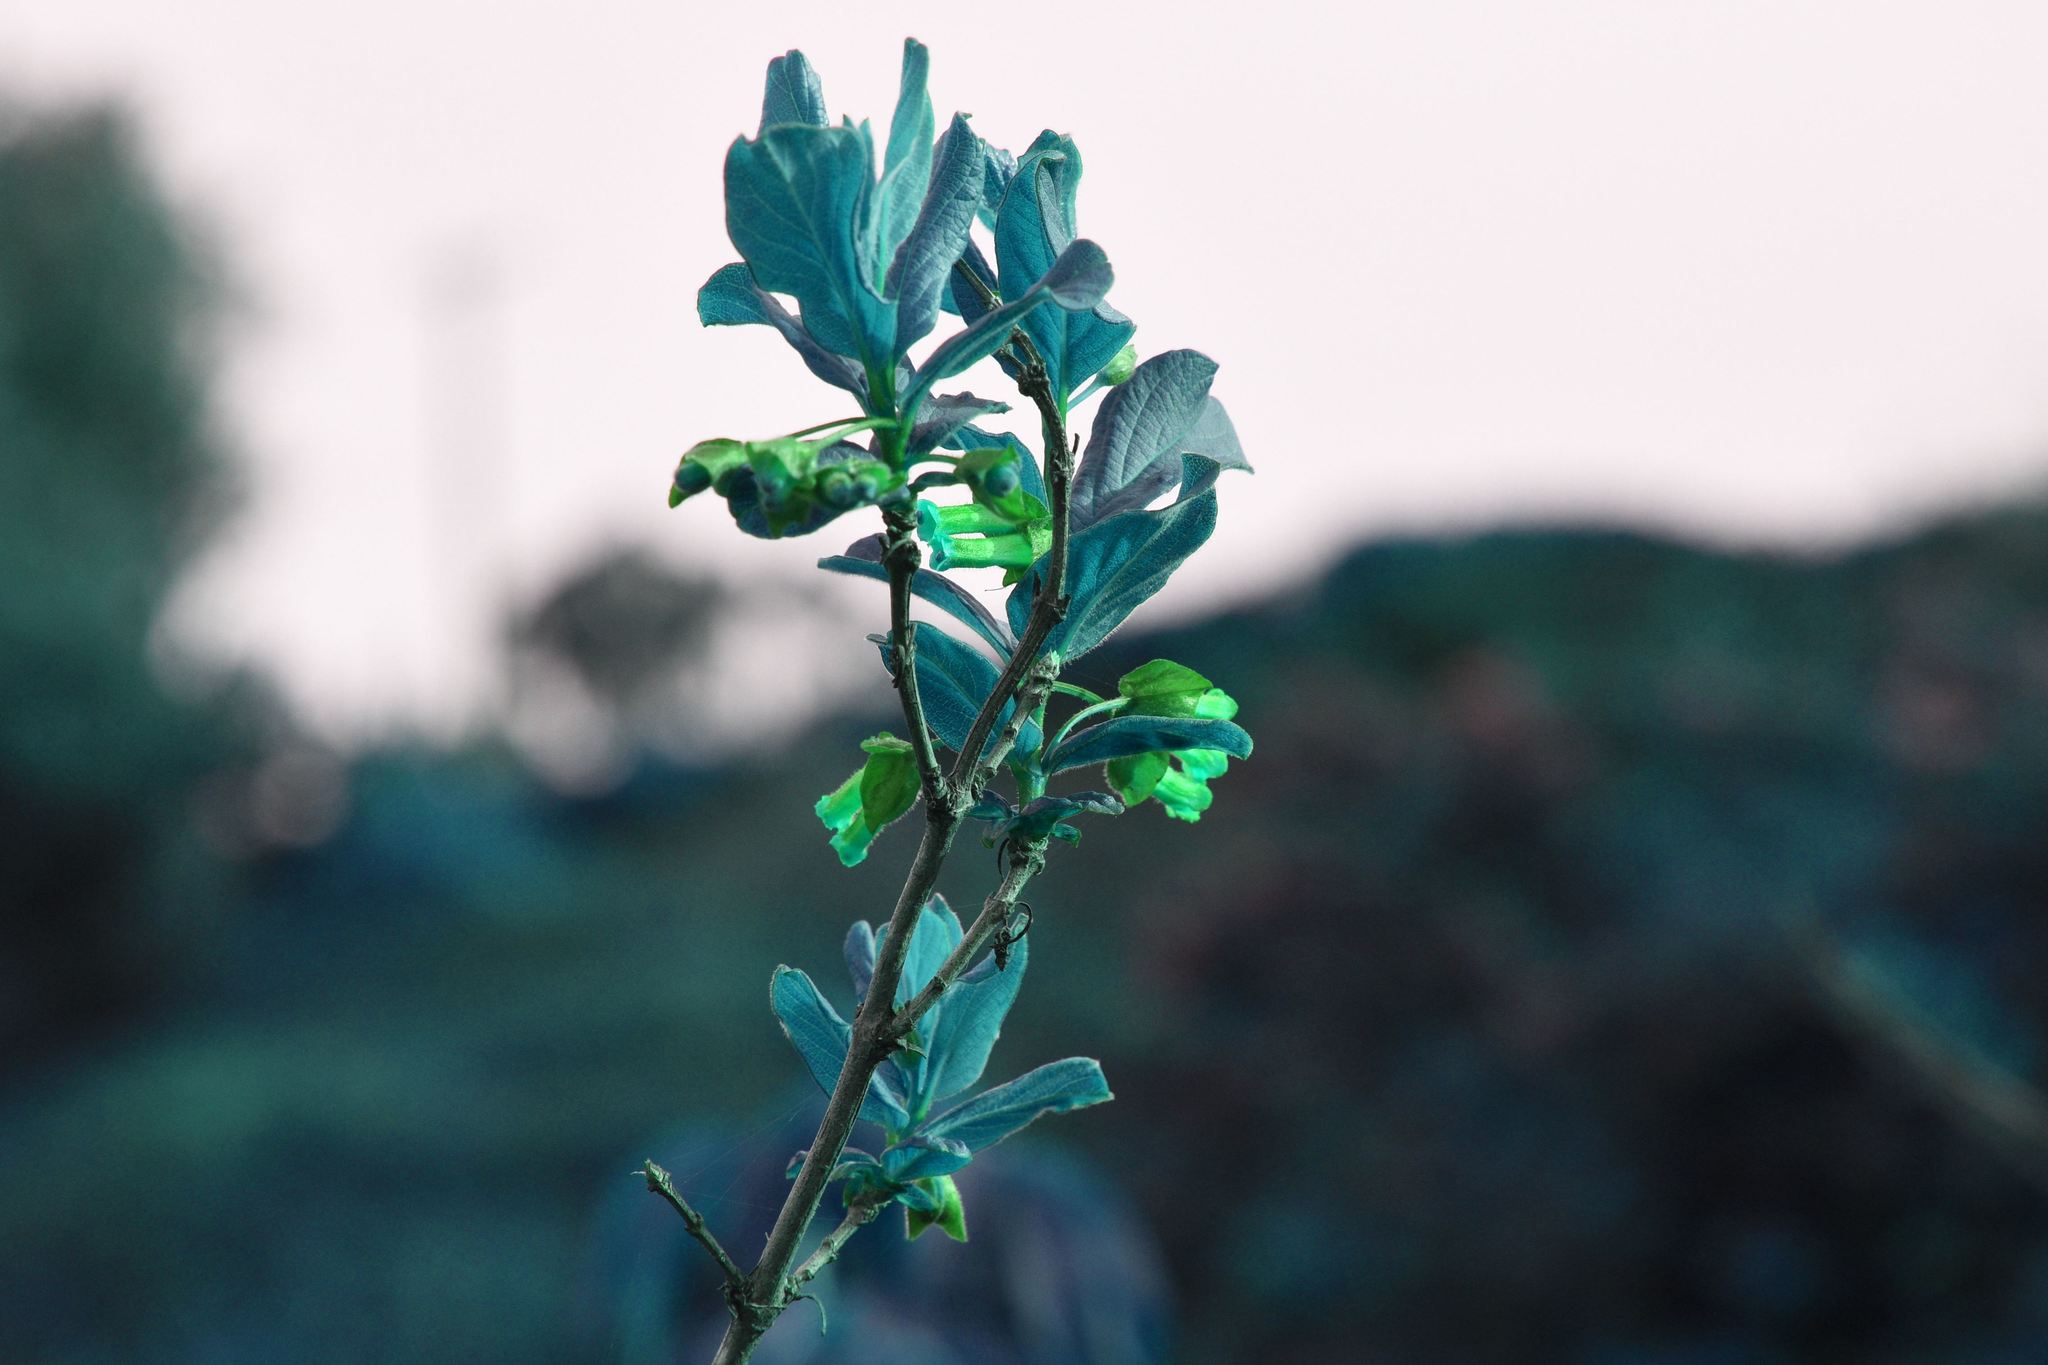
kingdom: Plantae
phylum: Tracheophyta
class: Magnoliopsida
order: Dipsacales
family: Caprifoliaceae
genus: Lonicera
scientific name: Lonicera involucrata
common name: Californian honeysuckle
